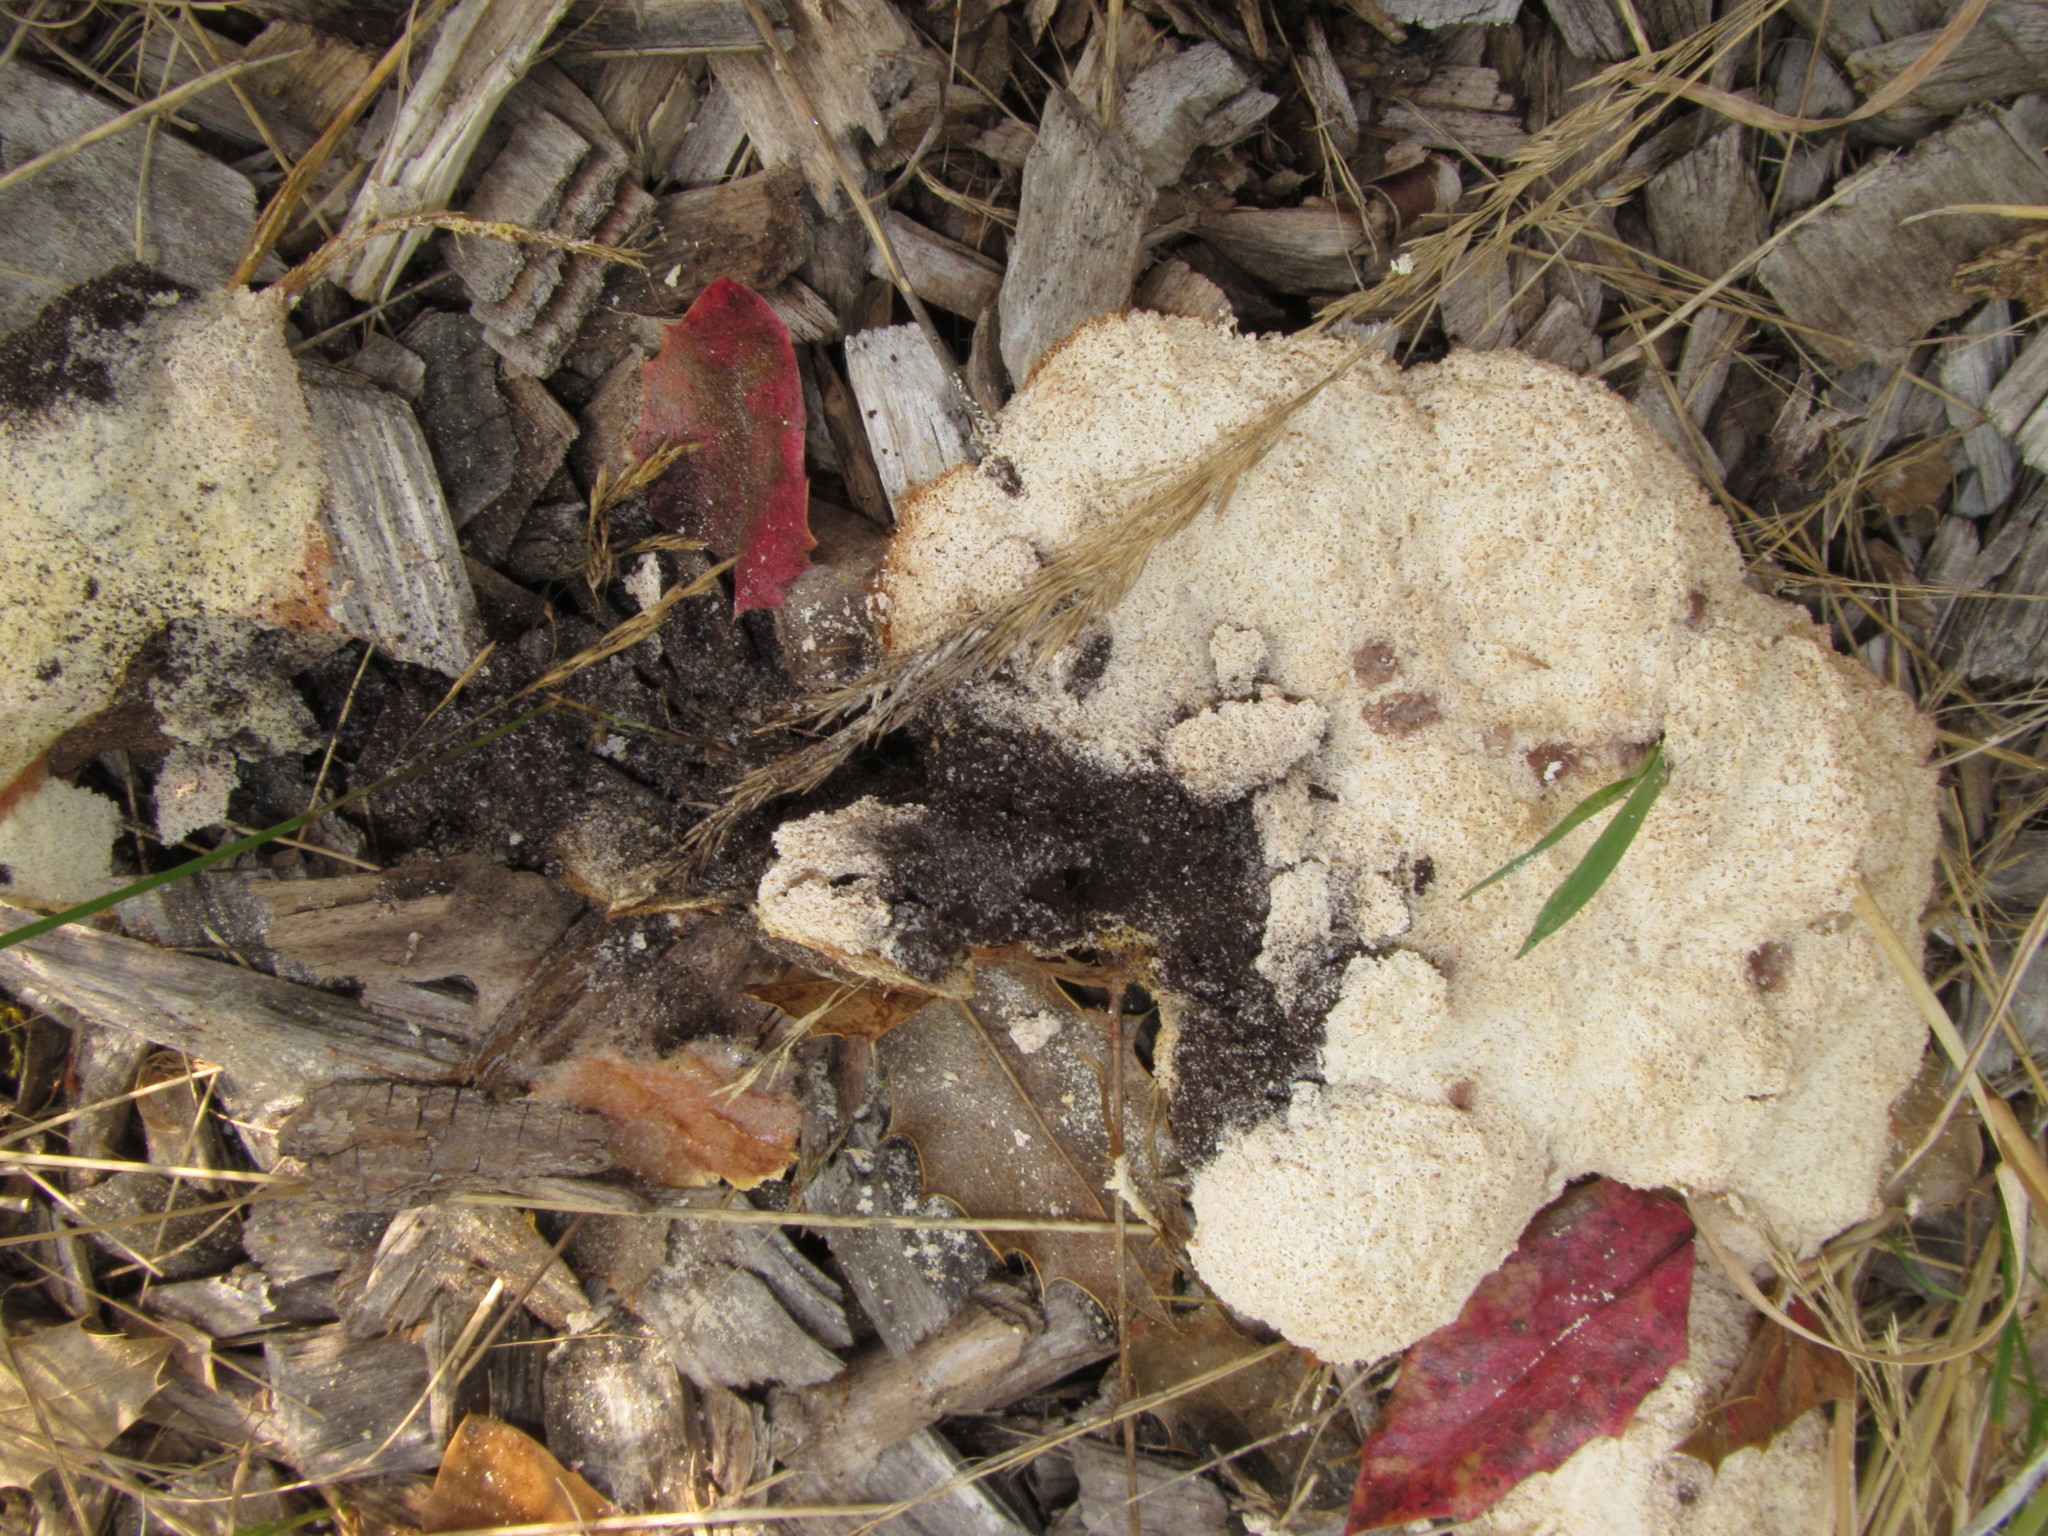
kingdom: Protozoa
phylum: Mycetozoa
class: Myxomycetes
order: Physarales
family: Physaraceae
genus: Fuligo
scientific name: Fuligo septica
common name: Dog vomit slime mold
